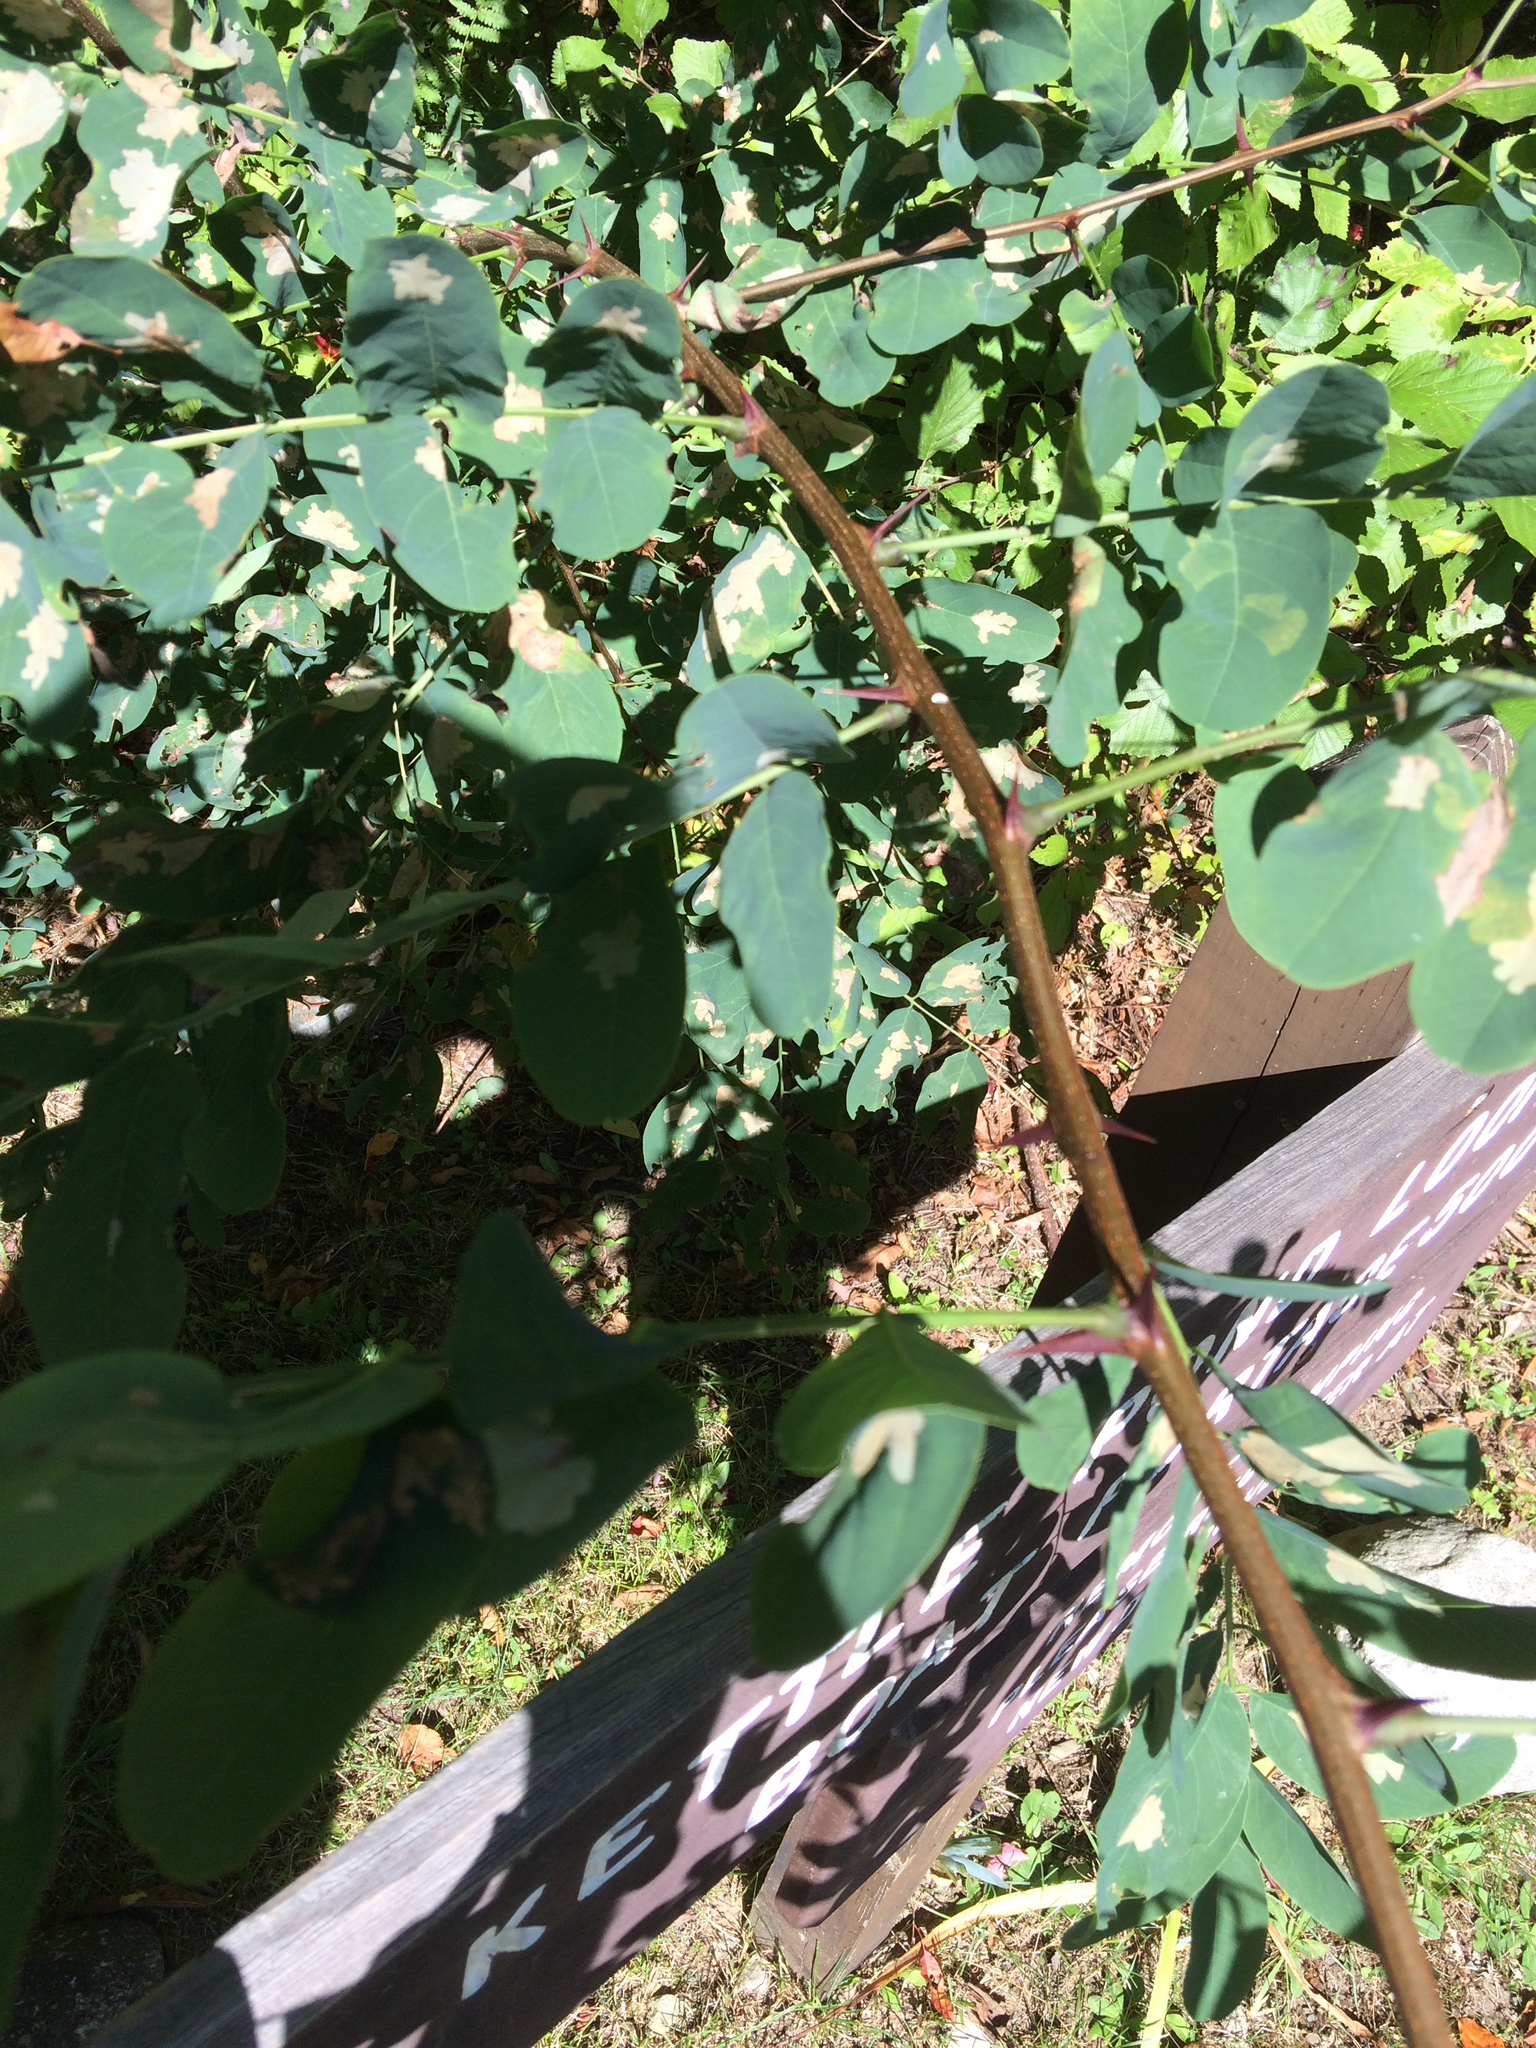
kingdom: Plantae
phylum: Tracheophyta
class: Magnoliopsida
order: Fabales
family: Fabaceae
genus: Robinia
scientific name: Robinia pseudoacacia
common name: Black locust
